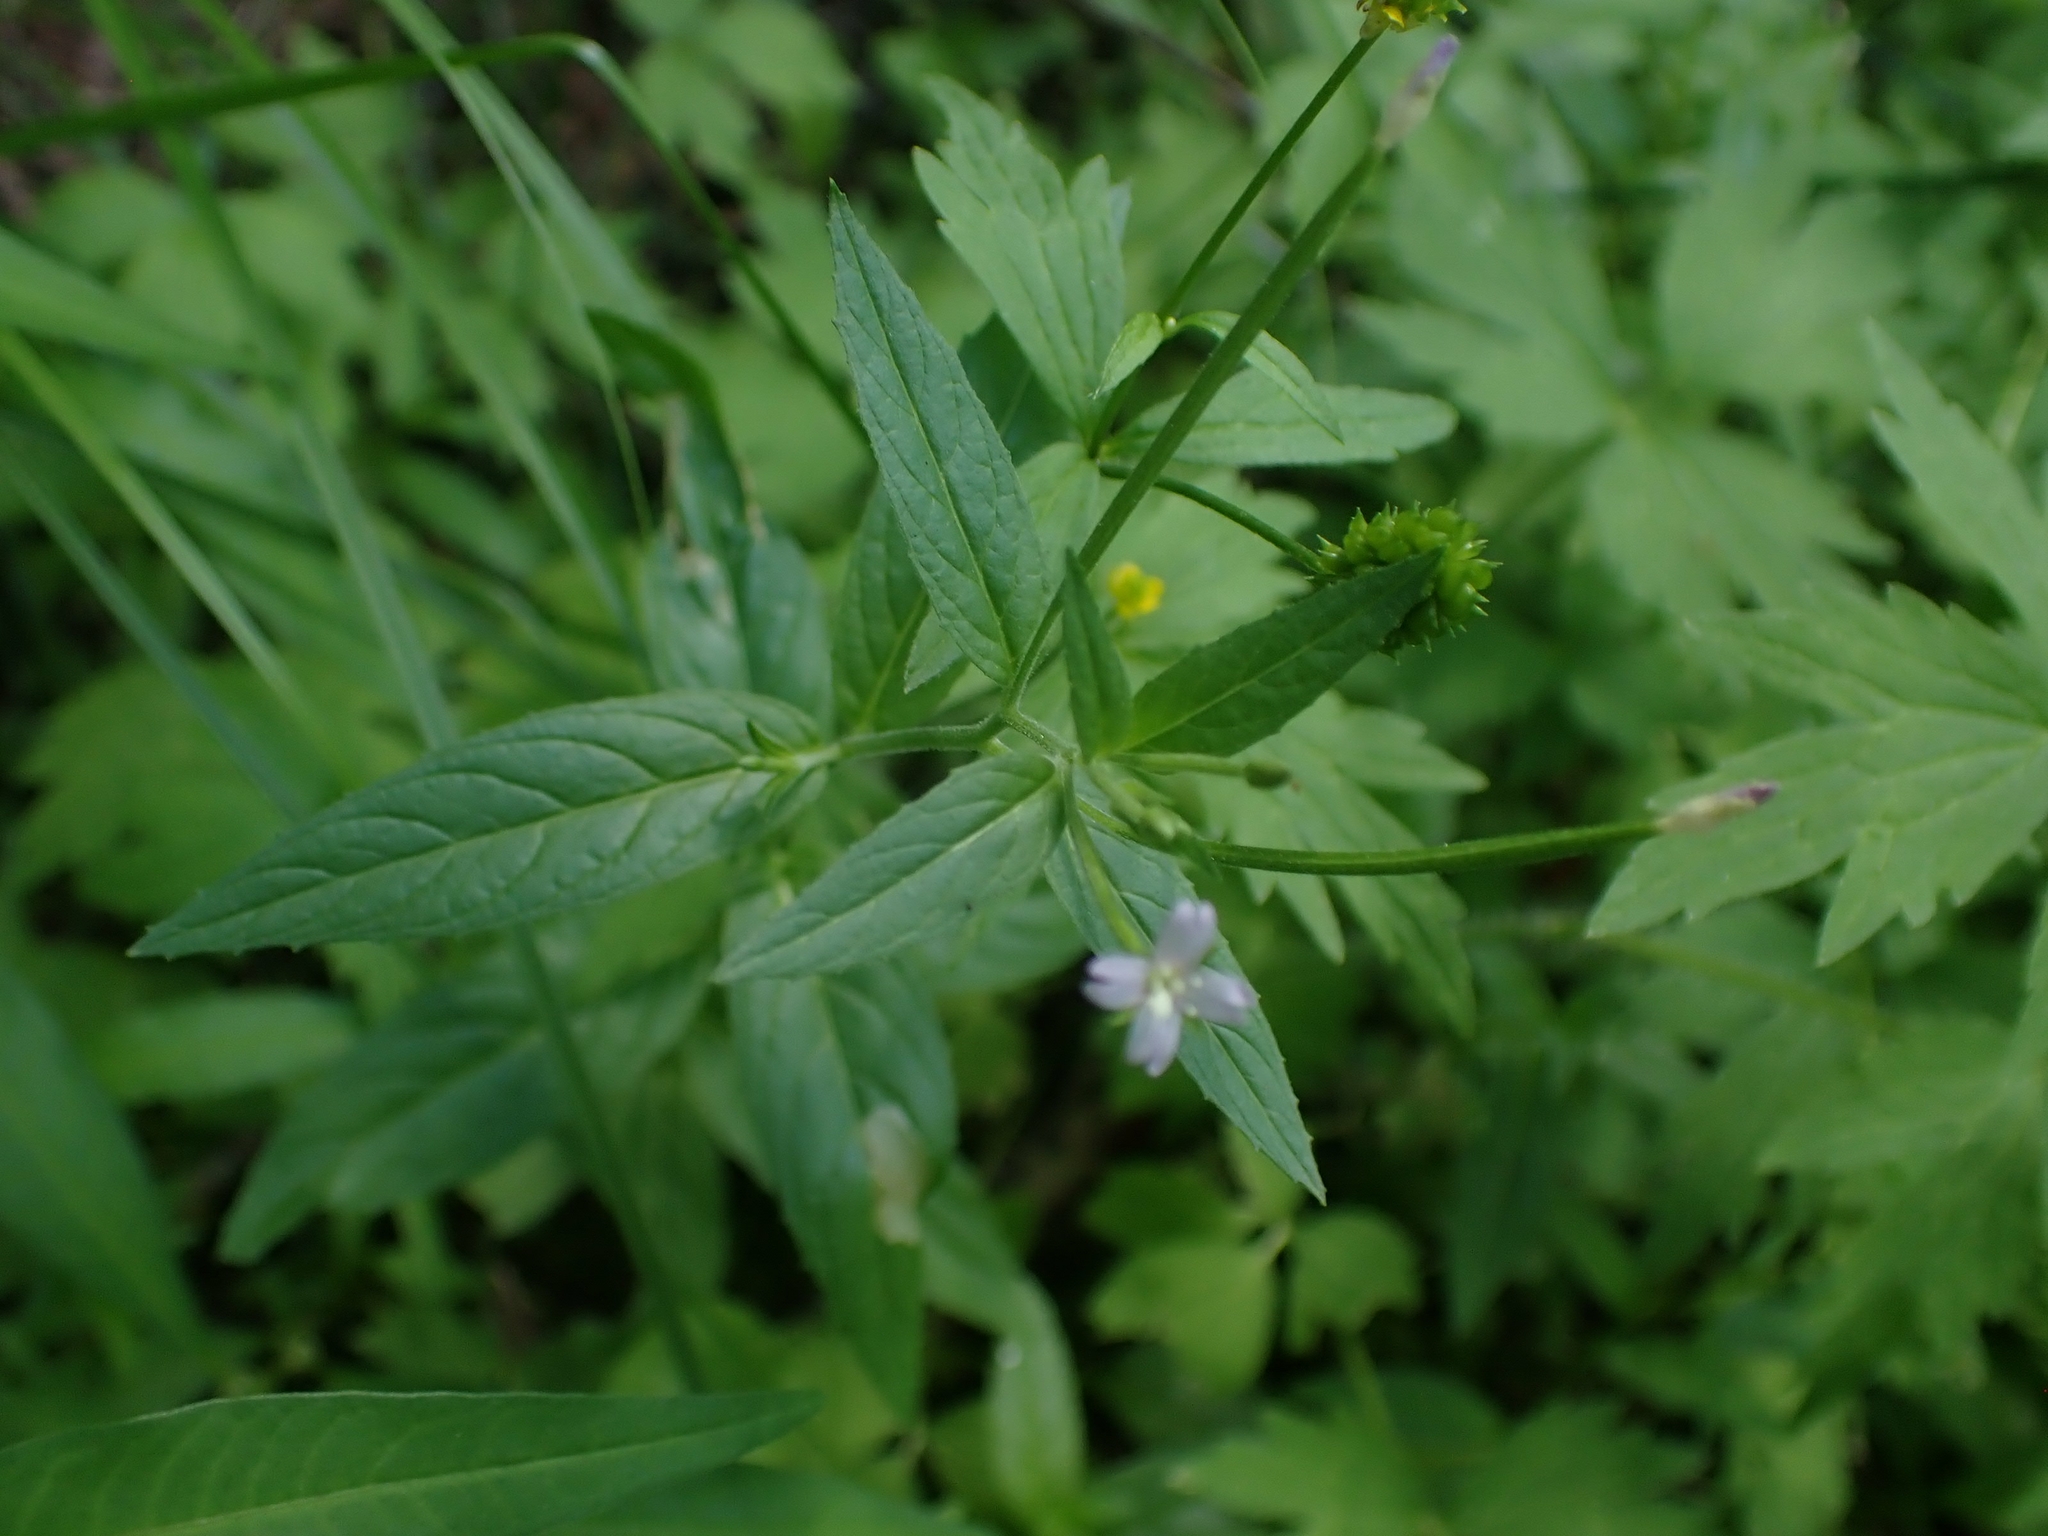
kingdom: Plantae
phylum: Tracheophyta
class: Magnoliopsida
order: Myrtales
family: Onagraceae
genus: Epilobium
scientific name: Epilobium ciliatum
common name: American willowherb
